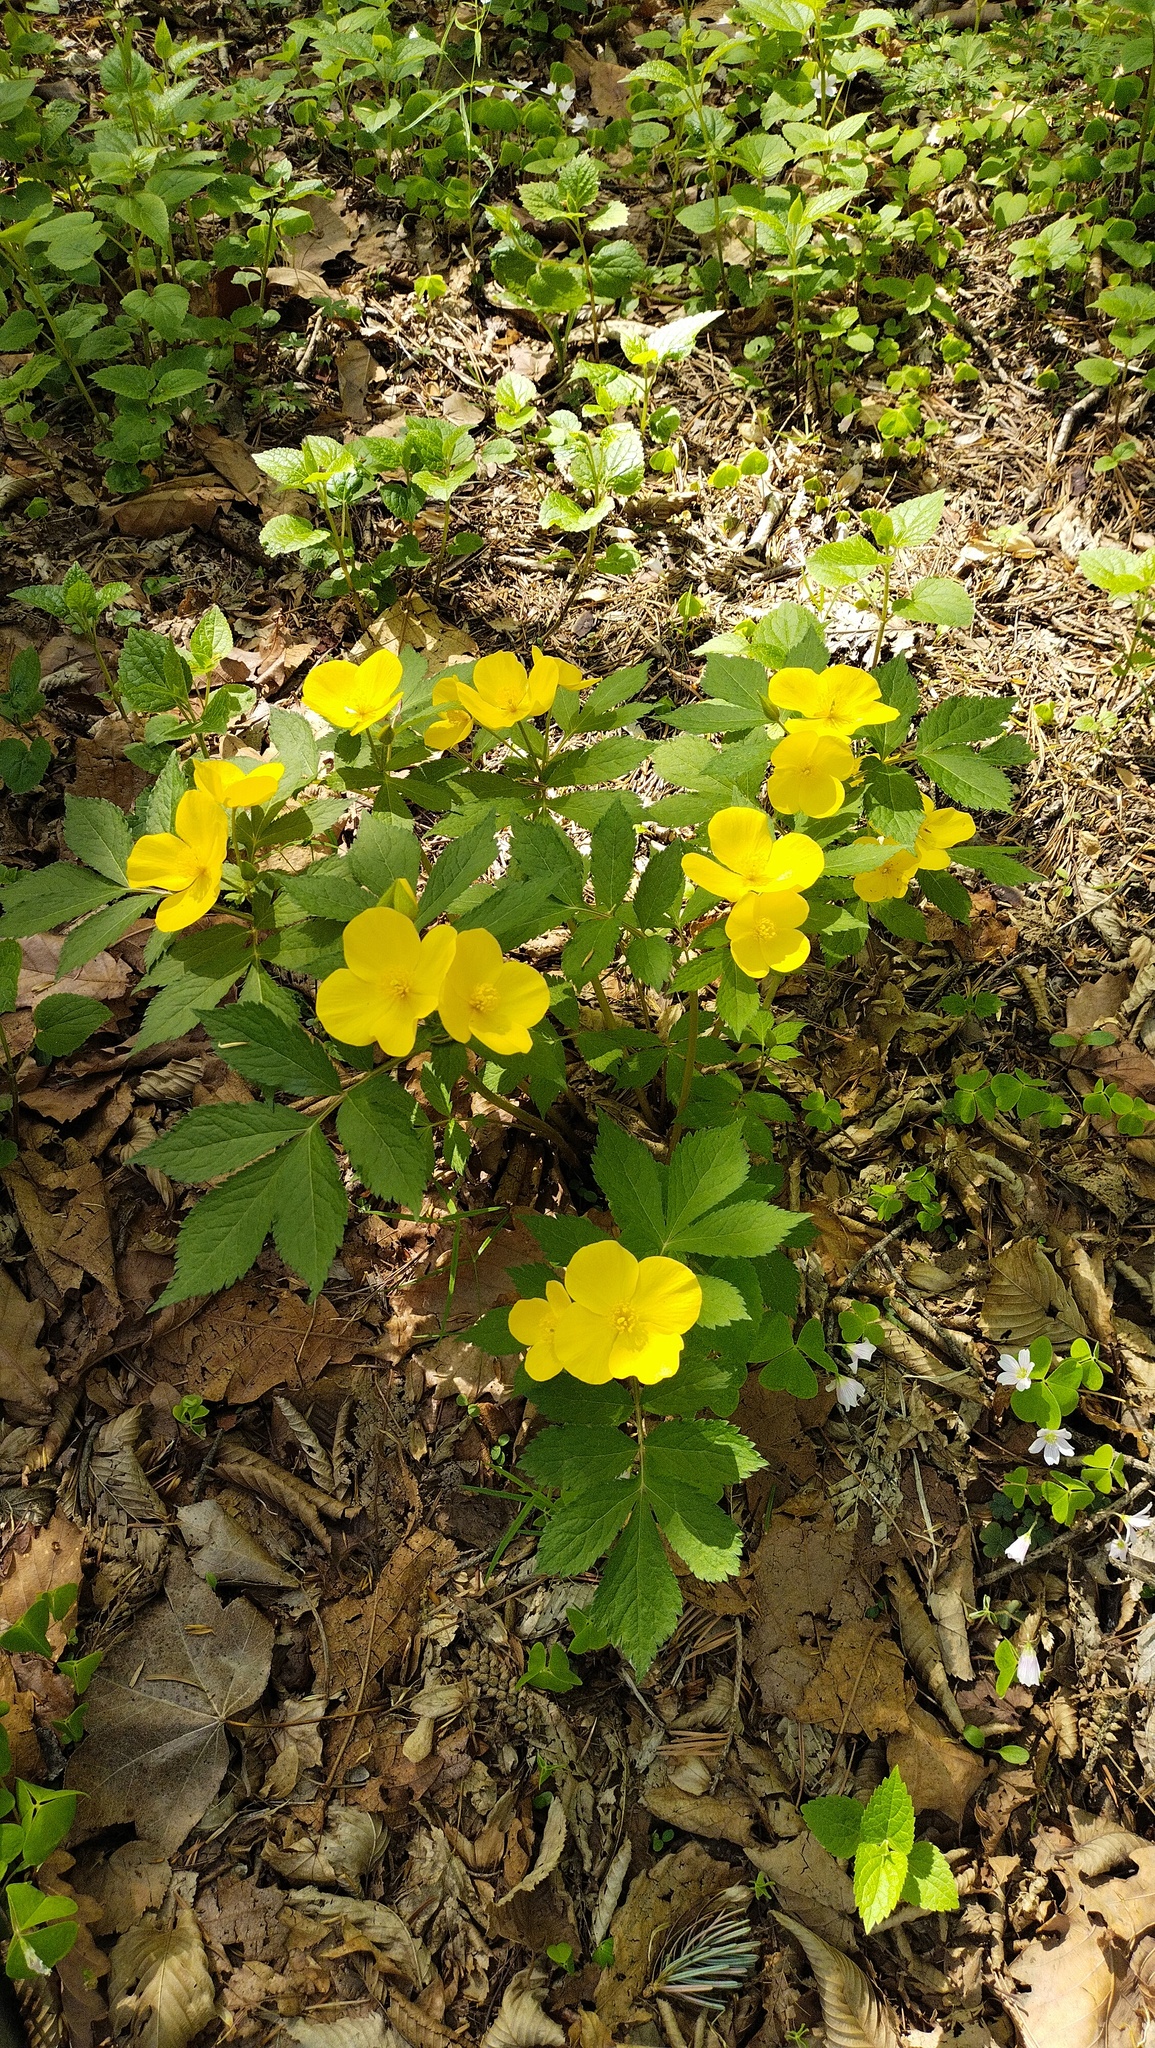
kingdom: Plantae
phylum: Tracheophyta
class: Magnoliopsida
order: Ranunculales
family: Papaveraceae
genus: Hylomecon
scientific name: Hylomecon vernalis
